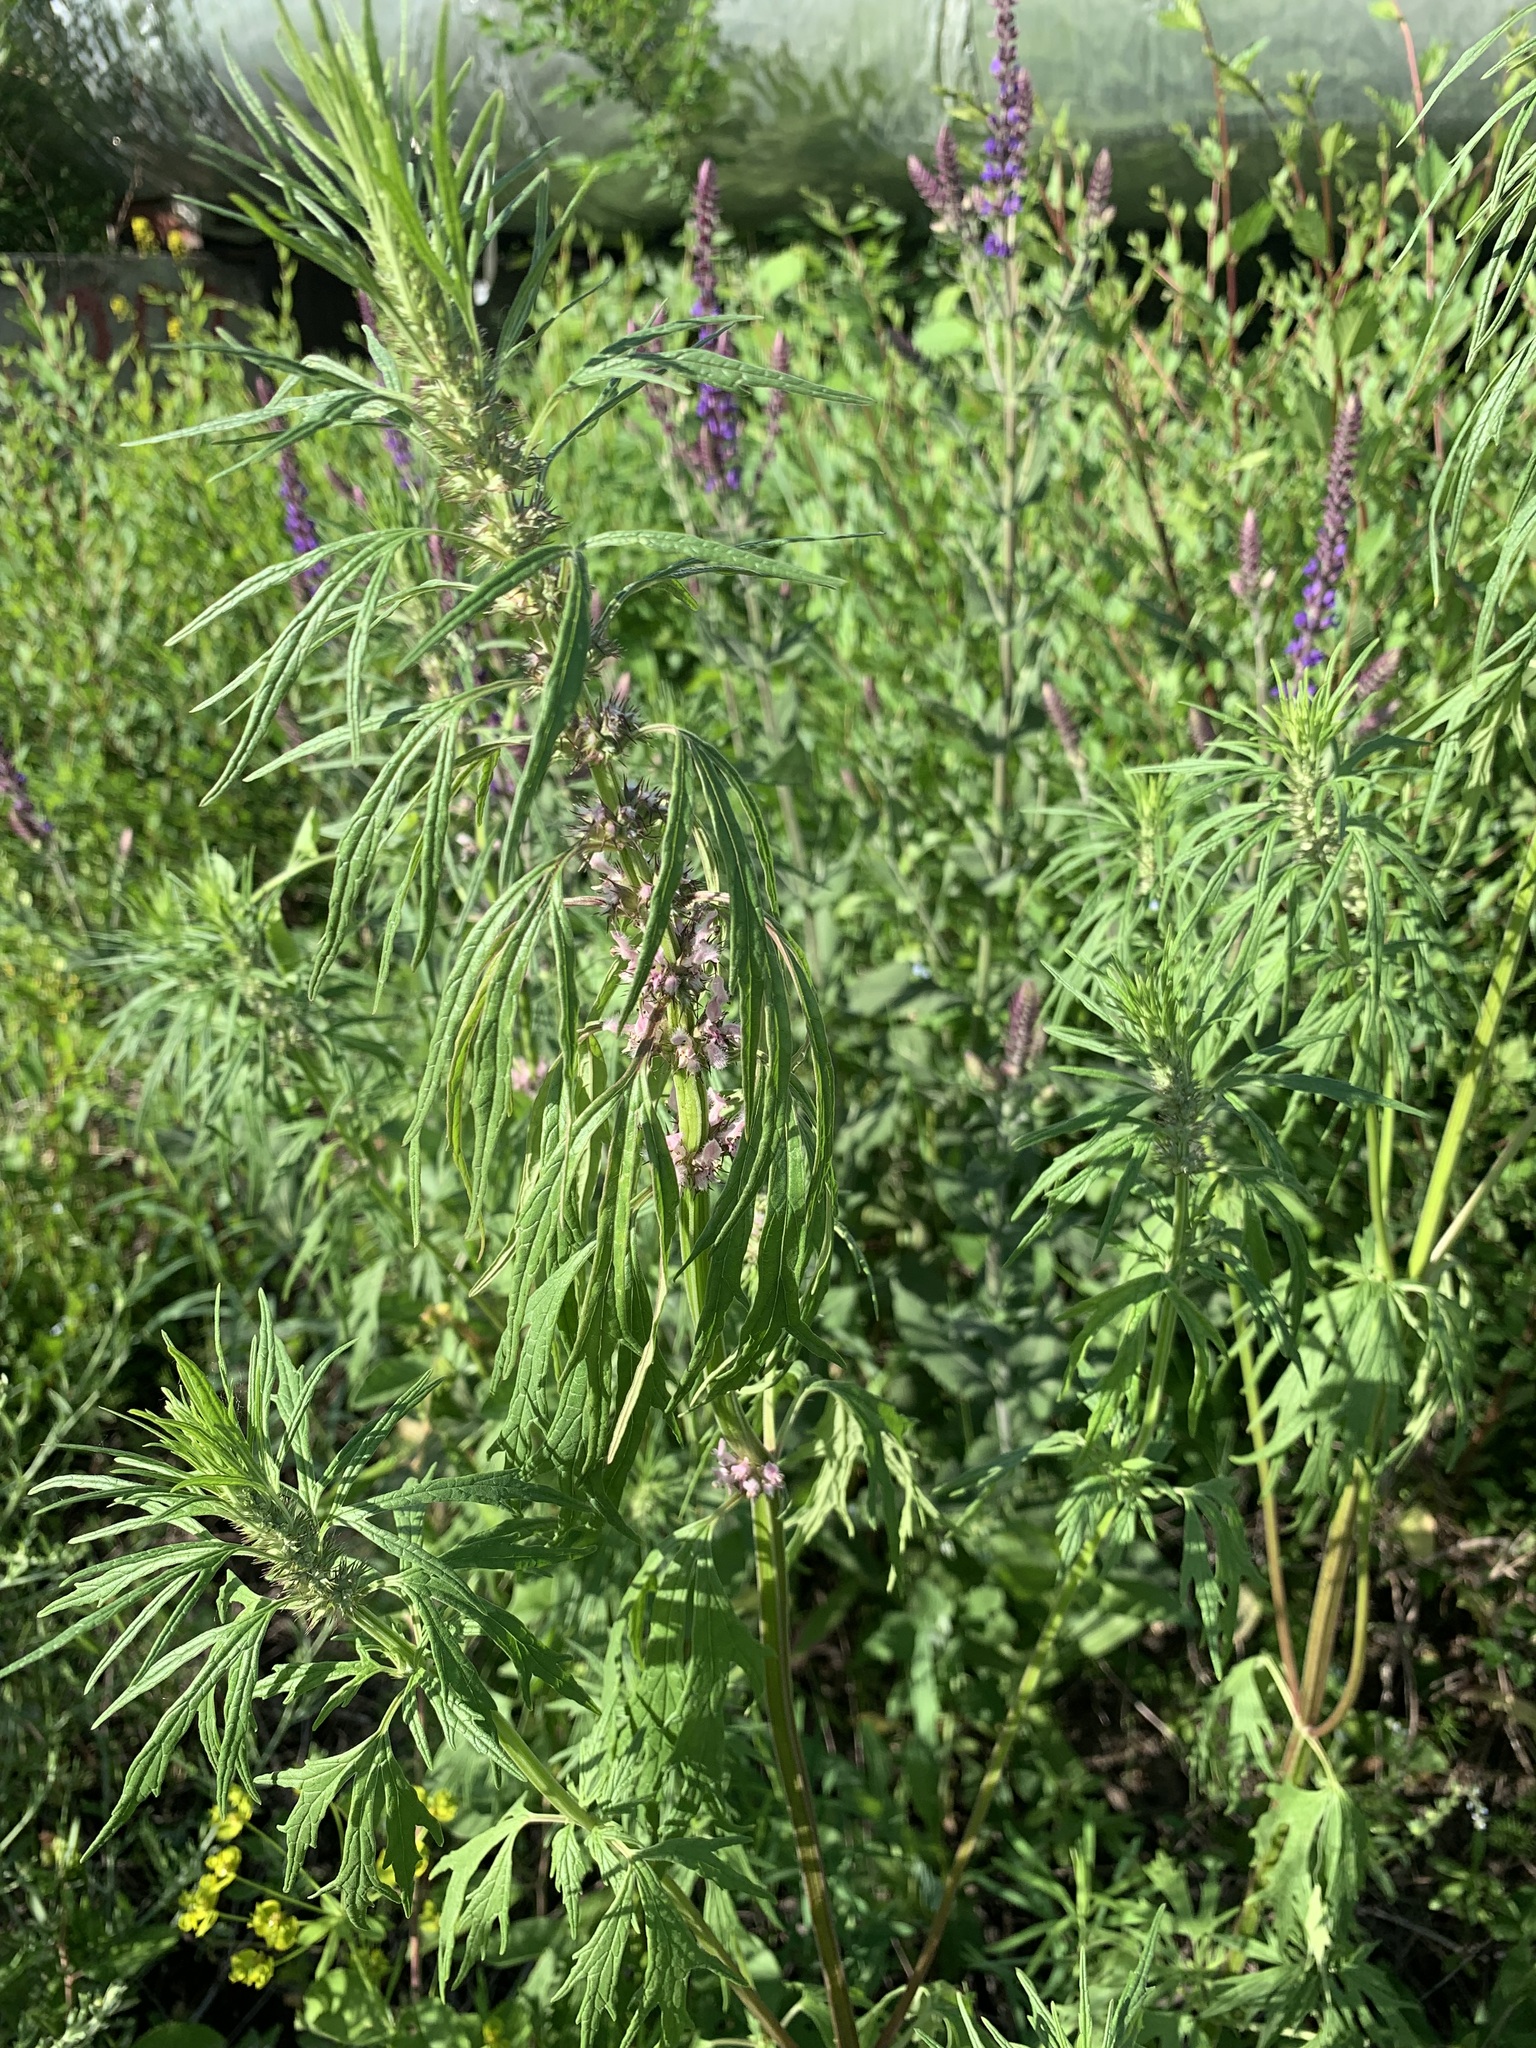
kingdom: Plantae
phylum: Tracheophyta
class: Magnoliopsida
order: Lamiales
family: Lamiaceae
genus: Leonurus
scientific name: Leonurus glaucescens
